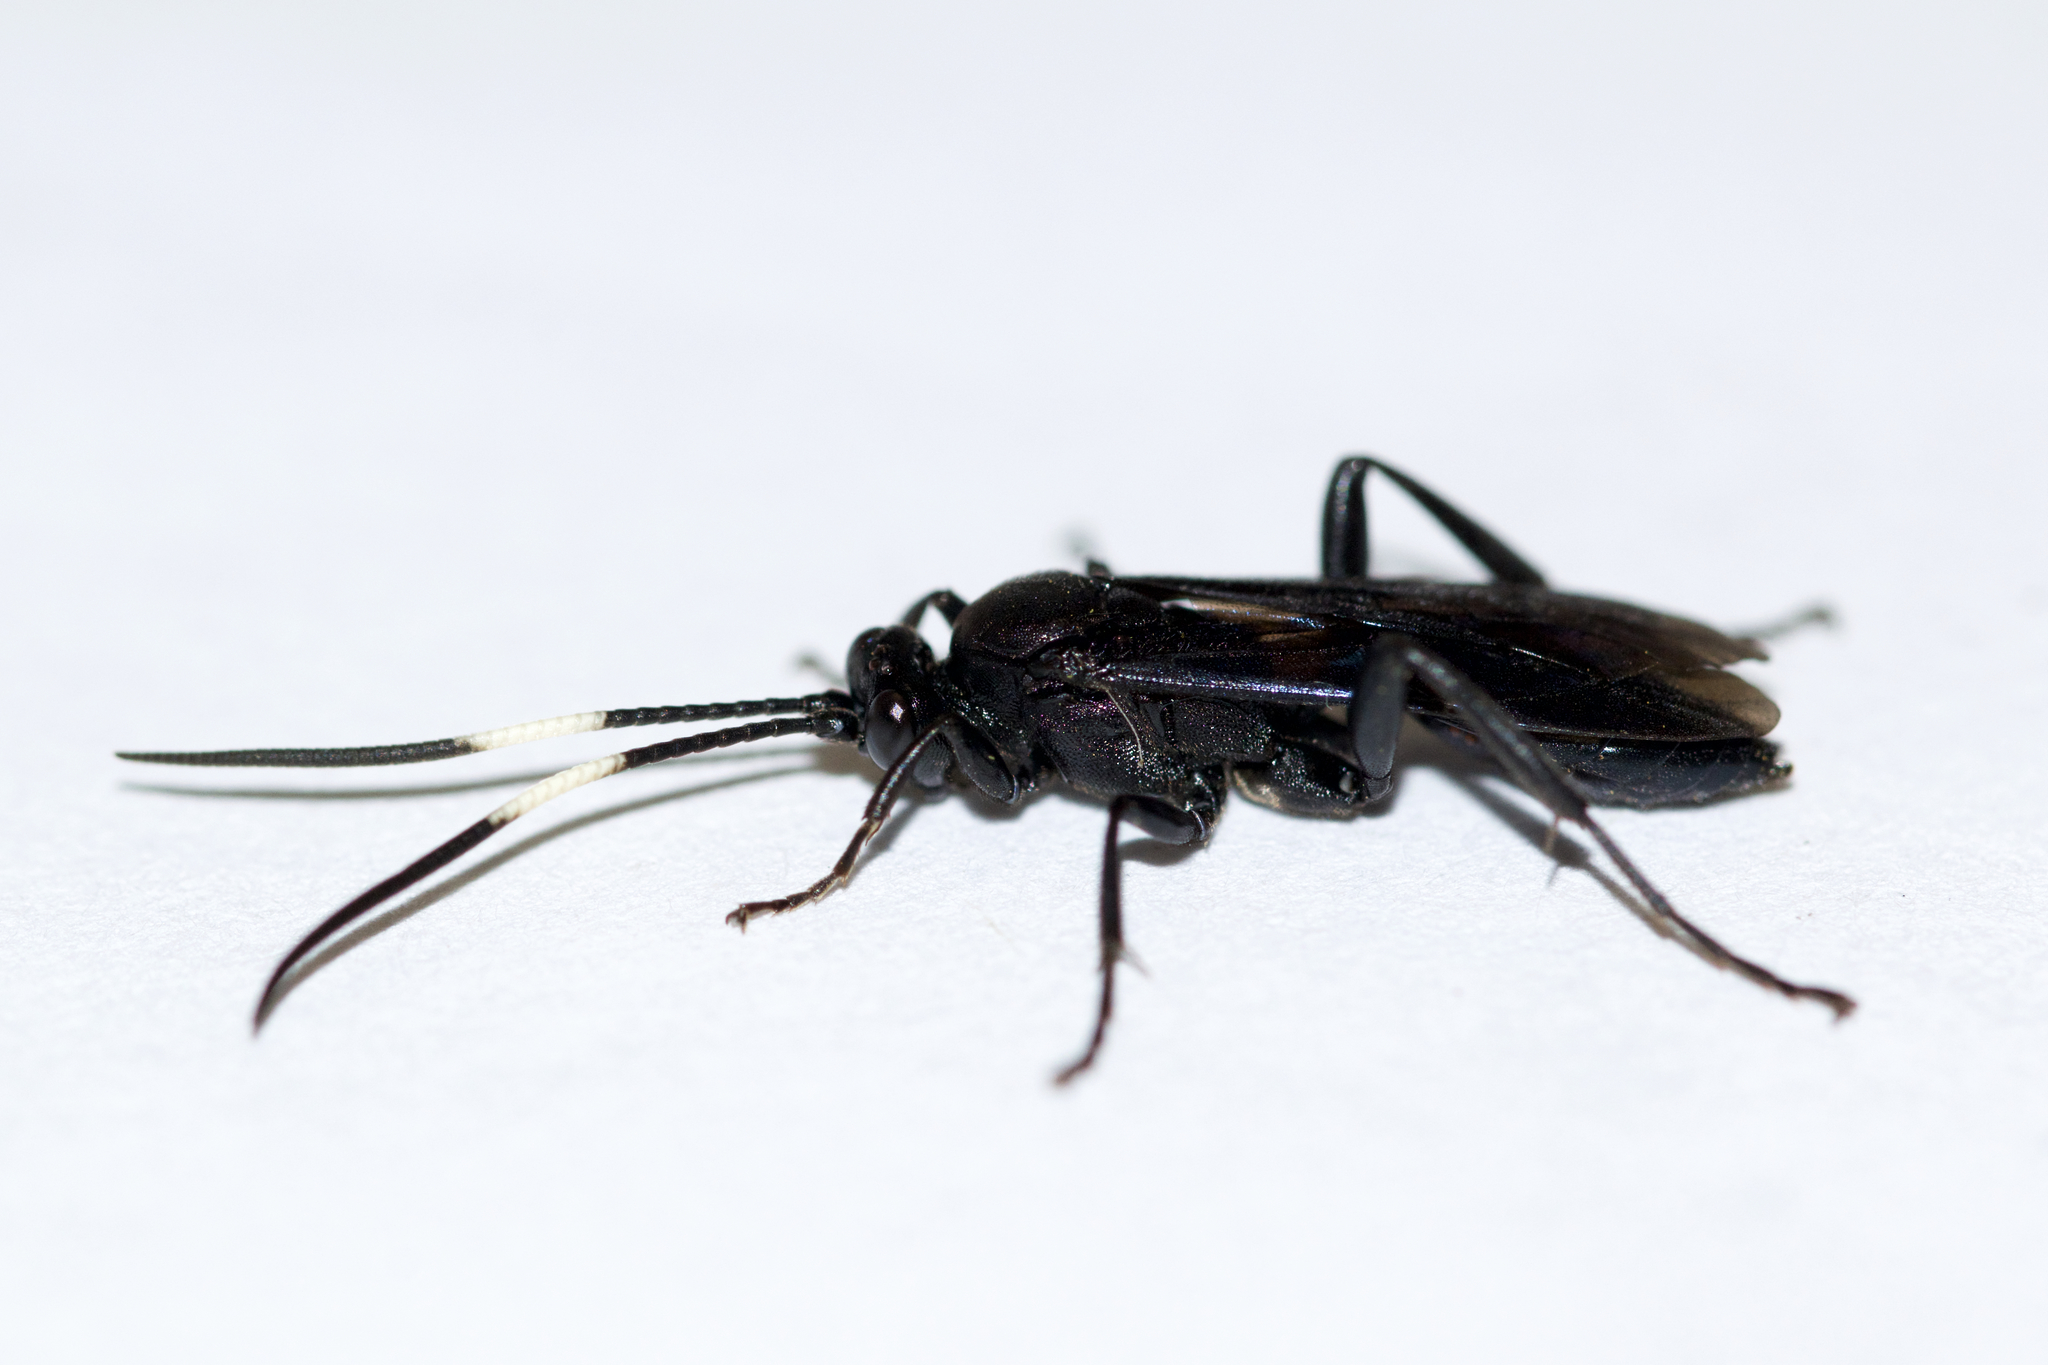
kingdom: Animalia
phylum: Arthropoda
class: Insecta
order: Hymenoptera
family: Ichneumonidae
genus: Cratichneumon
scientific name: Cratichneumon unifasciatorius
